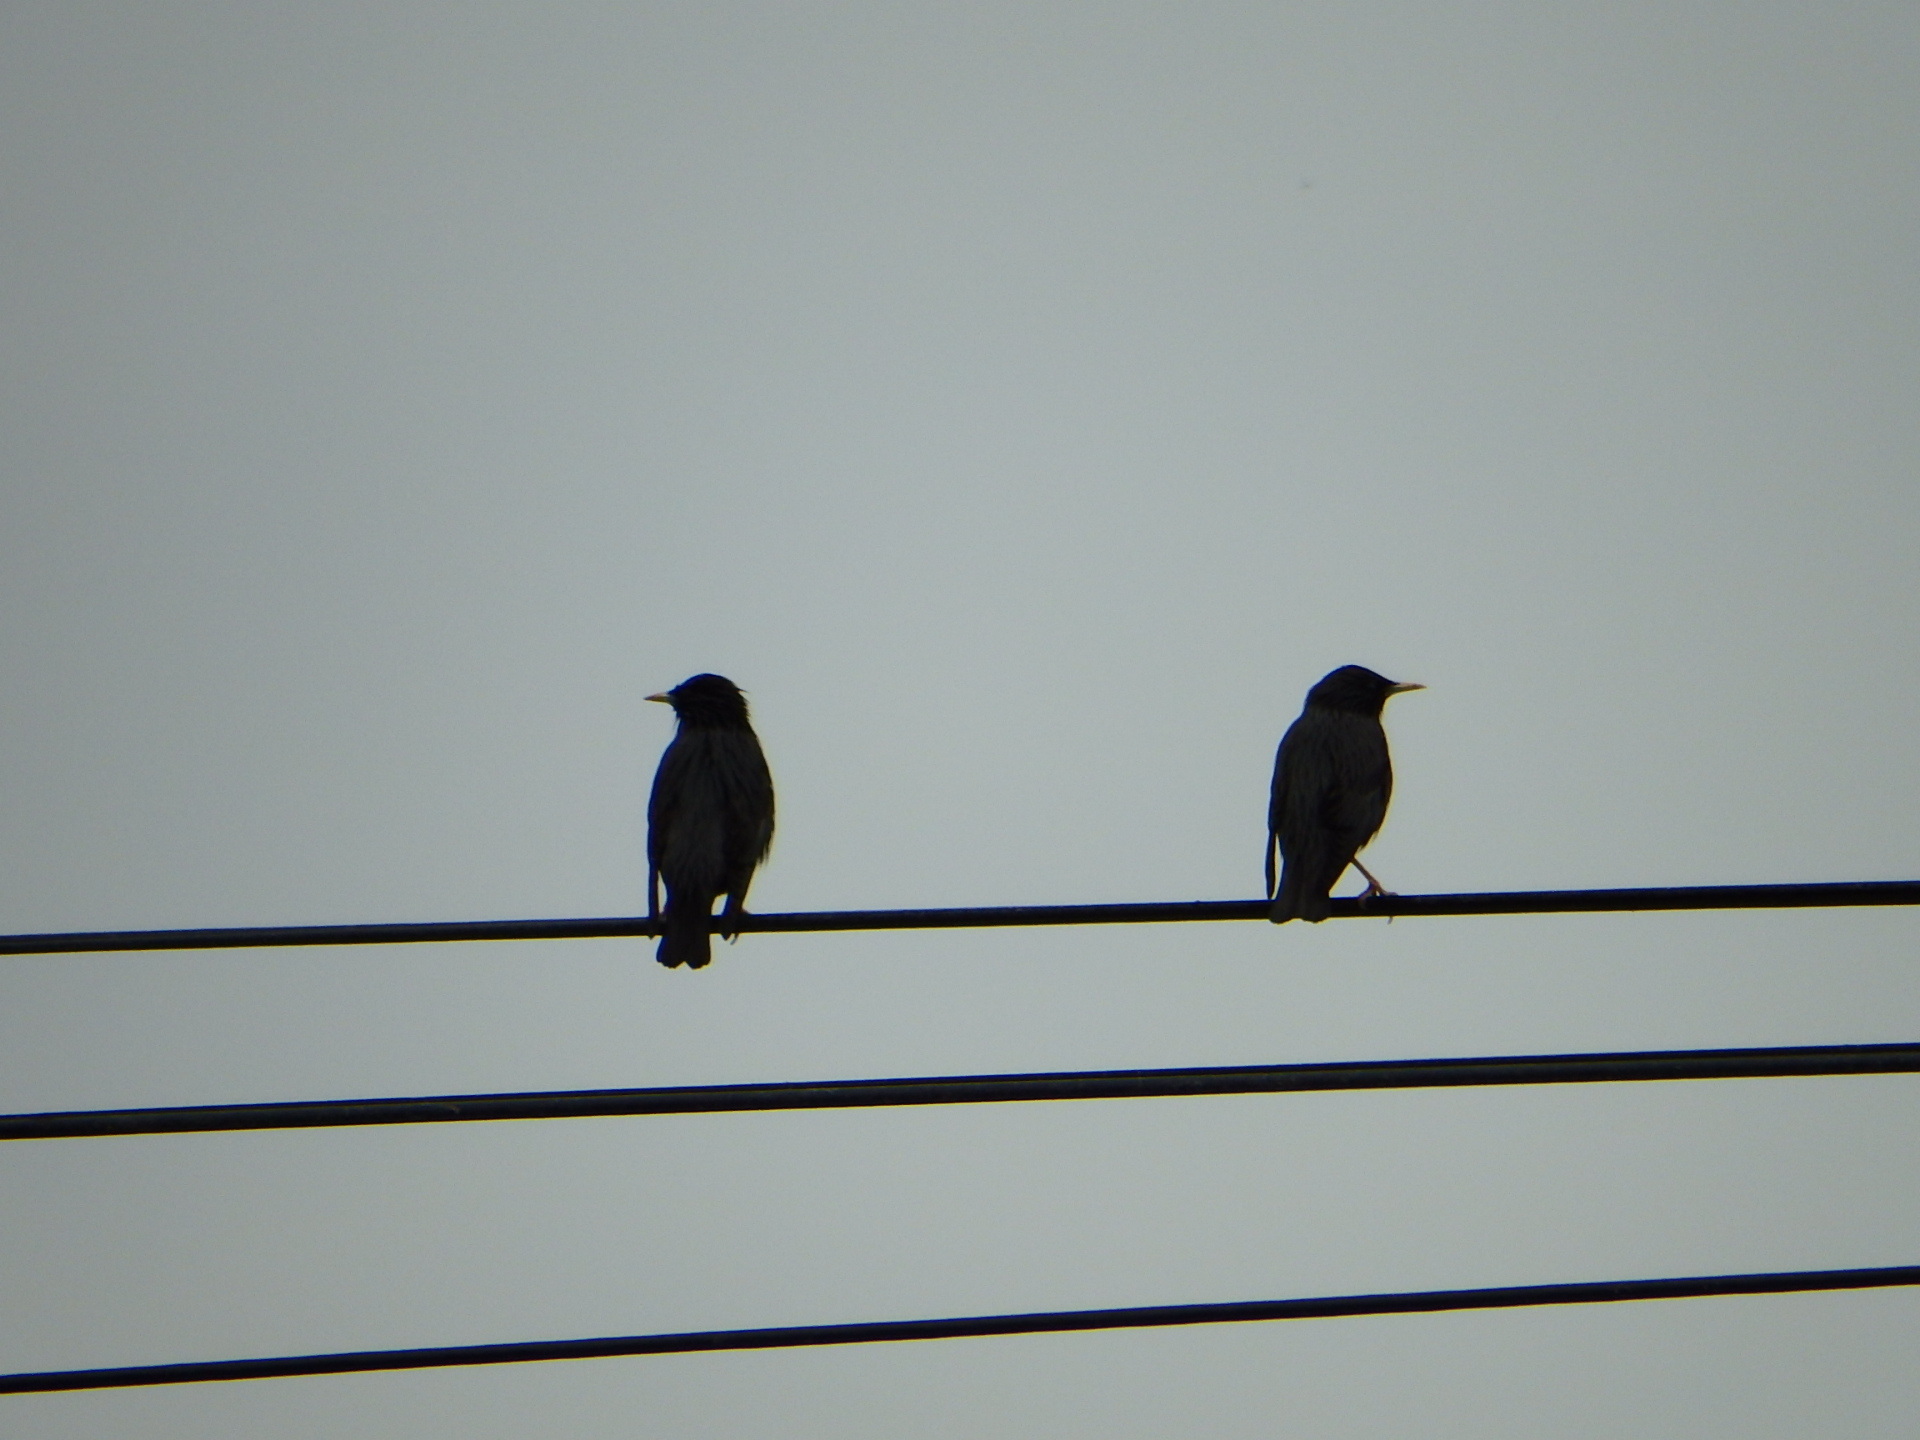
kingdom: Animalia
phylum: Chordata
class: Aves
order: Passeriformes
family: Sturnidae
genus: Sturnus
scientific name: Sturnus unicolor
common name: Spotless starling
